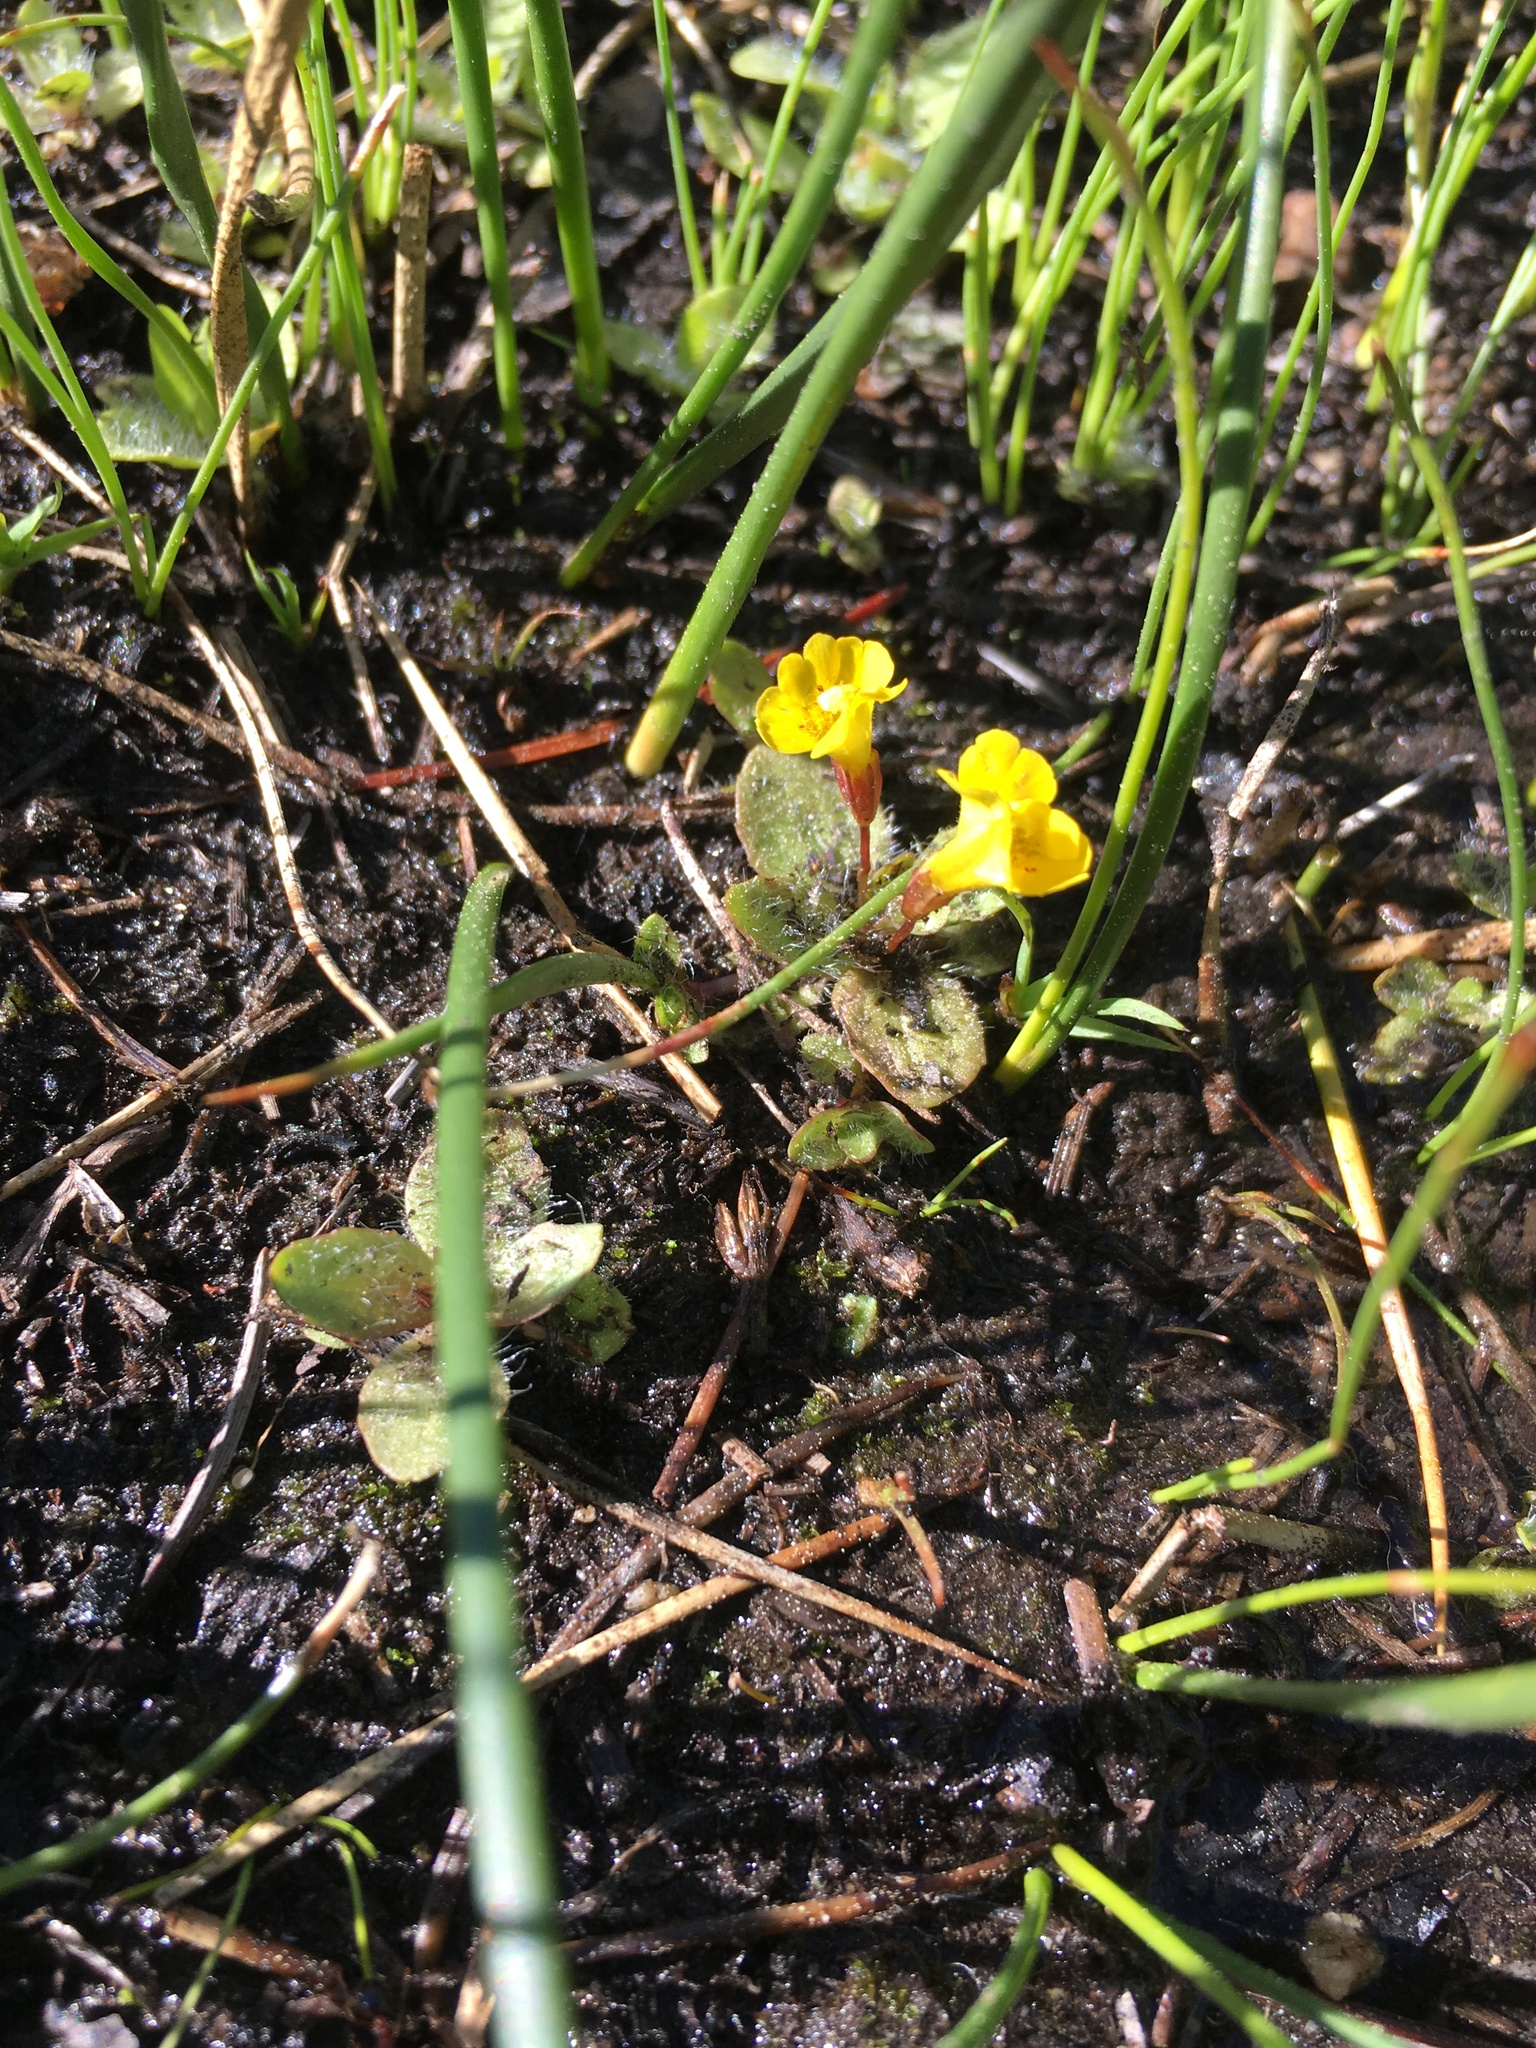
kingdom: Plantae
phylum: Tracheophyta
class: Magnoliopsida
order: Lamiales
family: Phrymaceae
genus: Erythranthe
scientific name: Erythranthe primuloides
